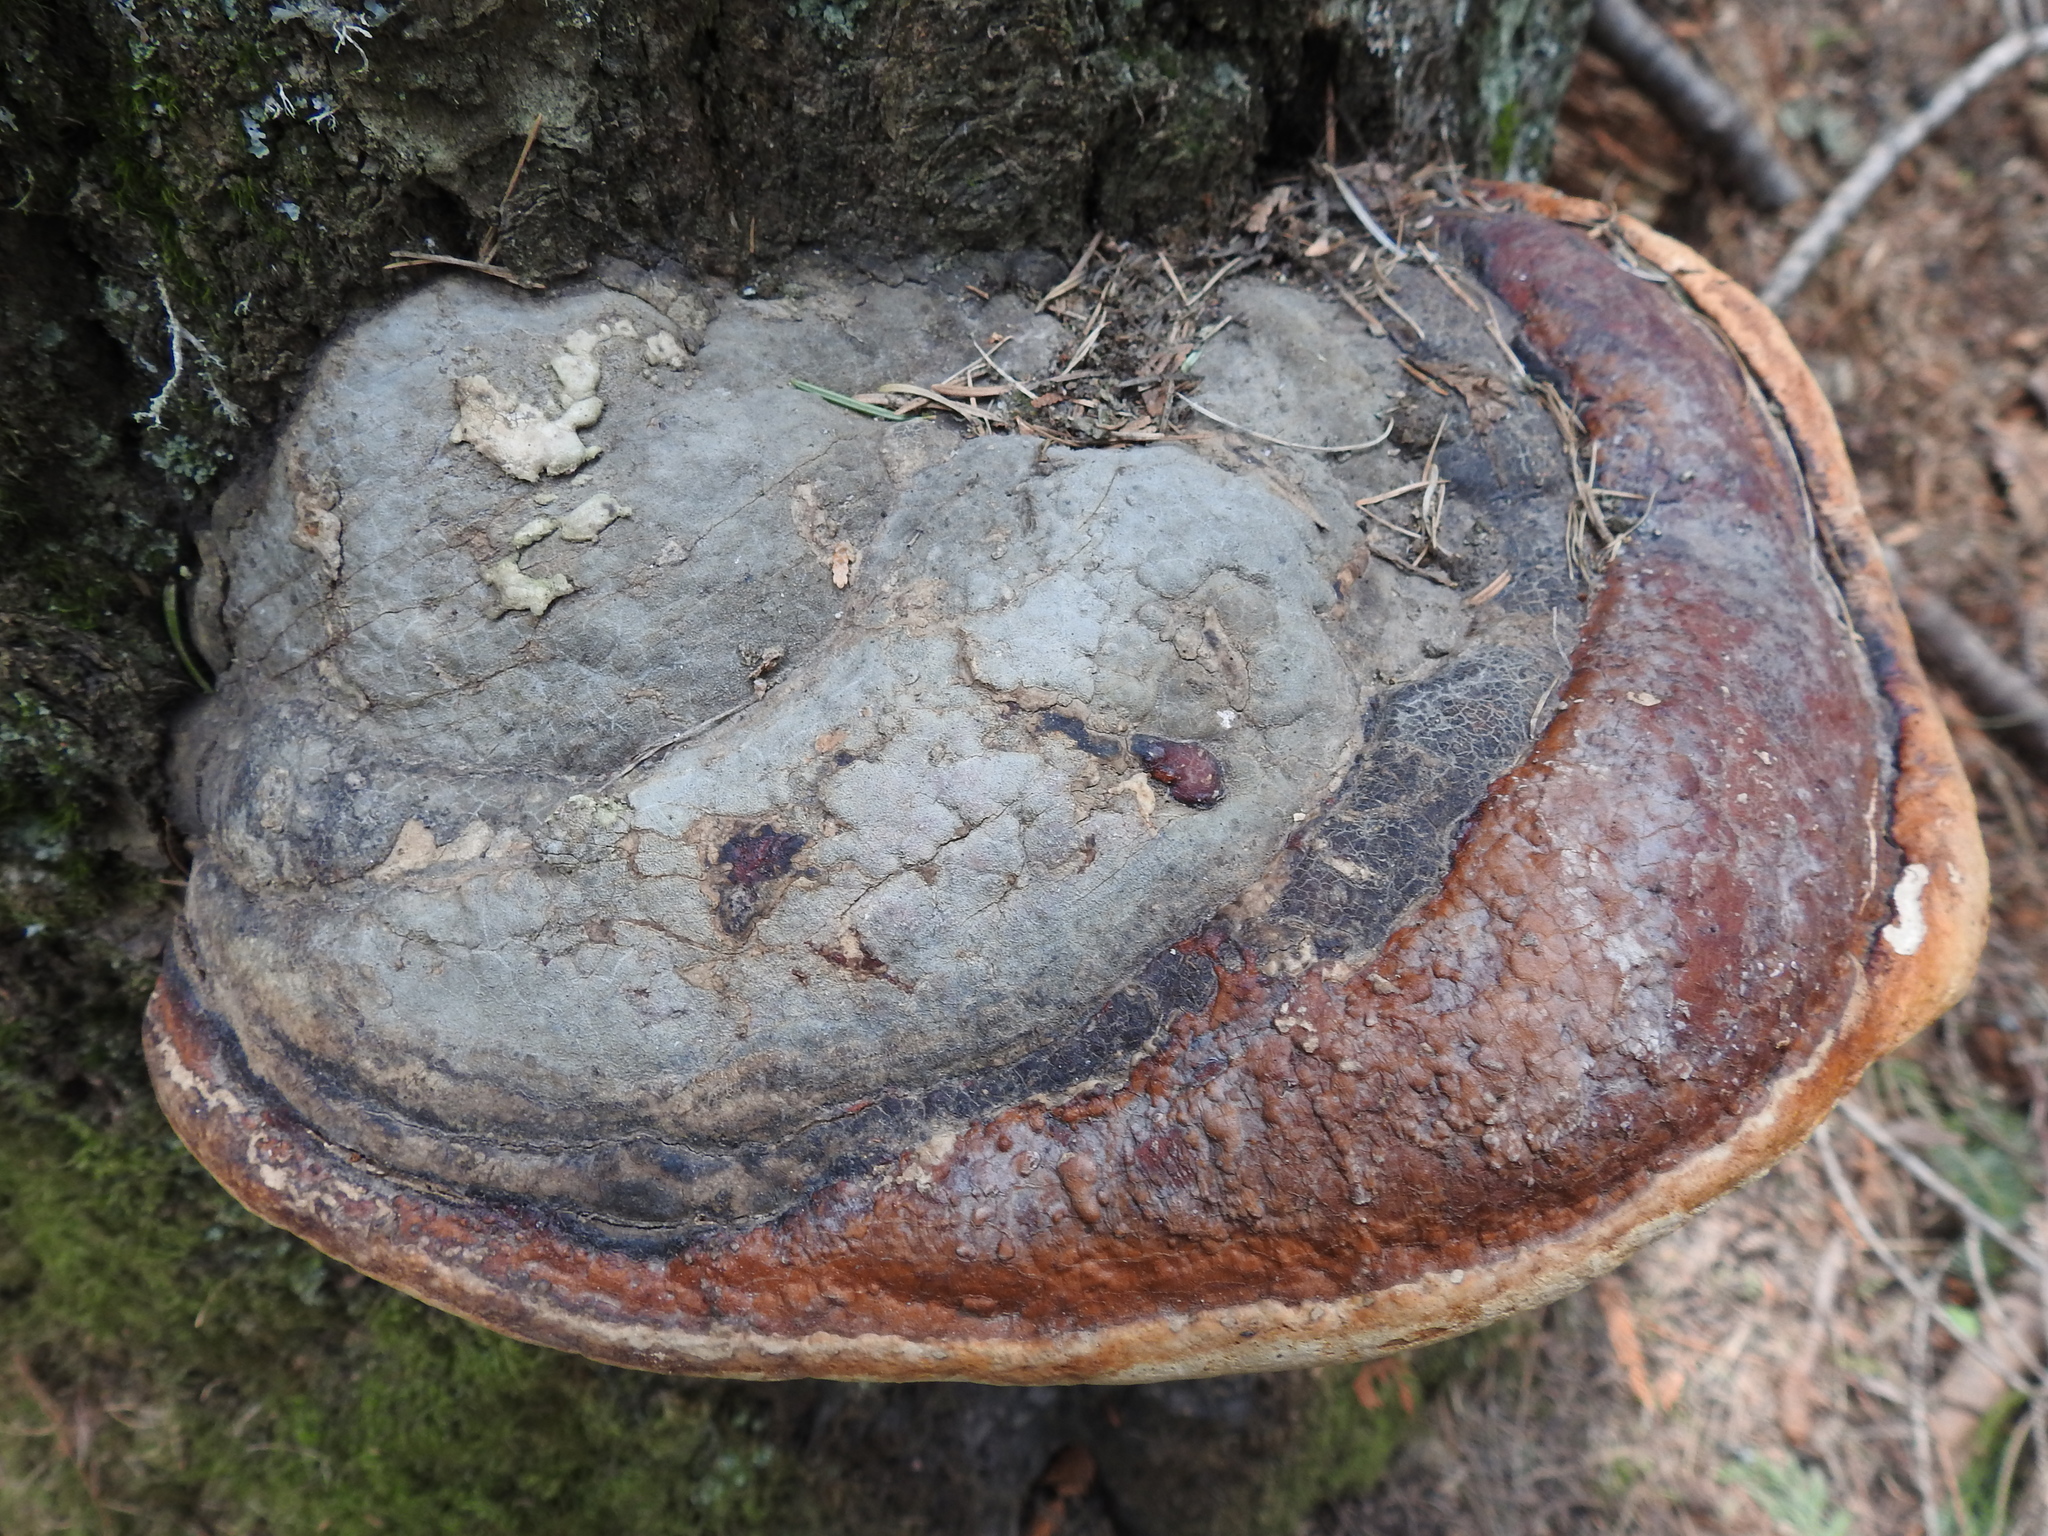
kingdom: Fungi
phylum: Basidiomycota
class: Agaricomycetes
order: Polyporales
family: Fomitopsidaceae
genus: Fomitopsis
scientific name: Fomitopsis mounceae
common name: Northern red belt
